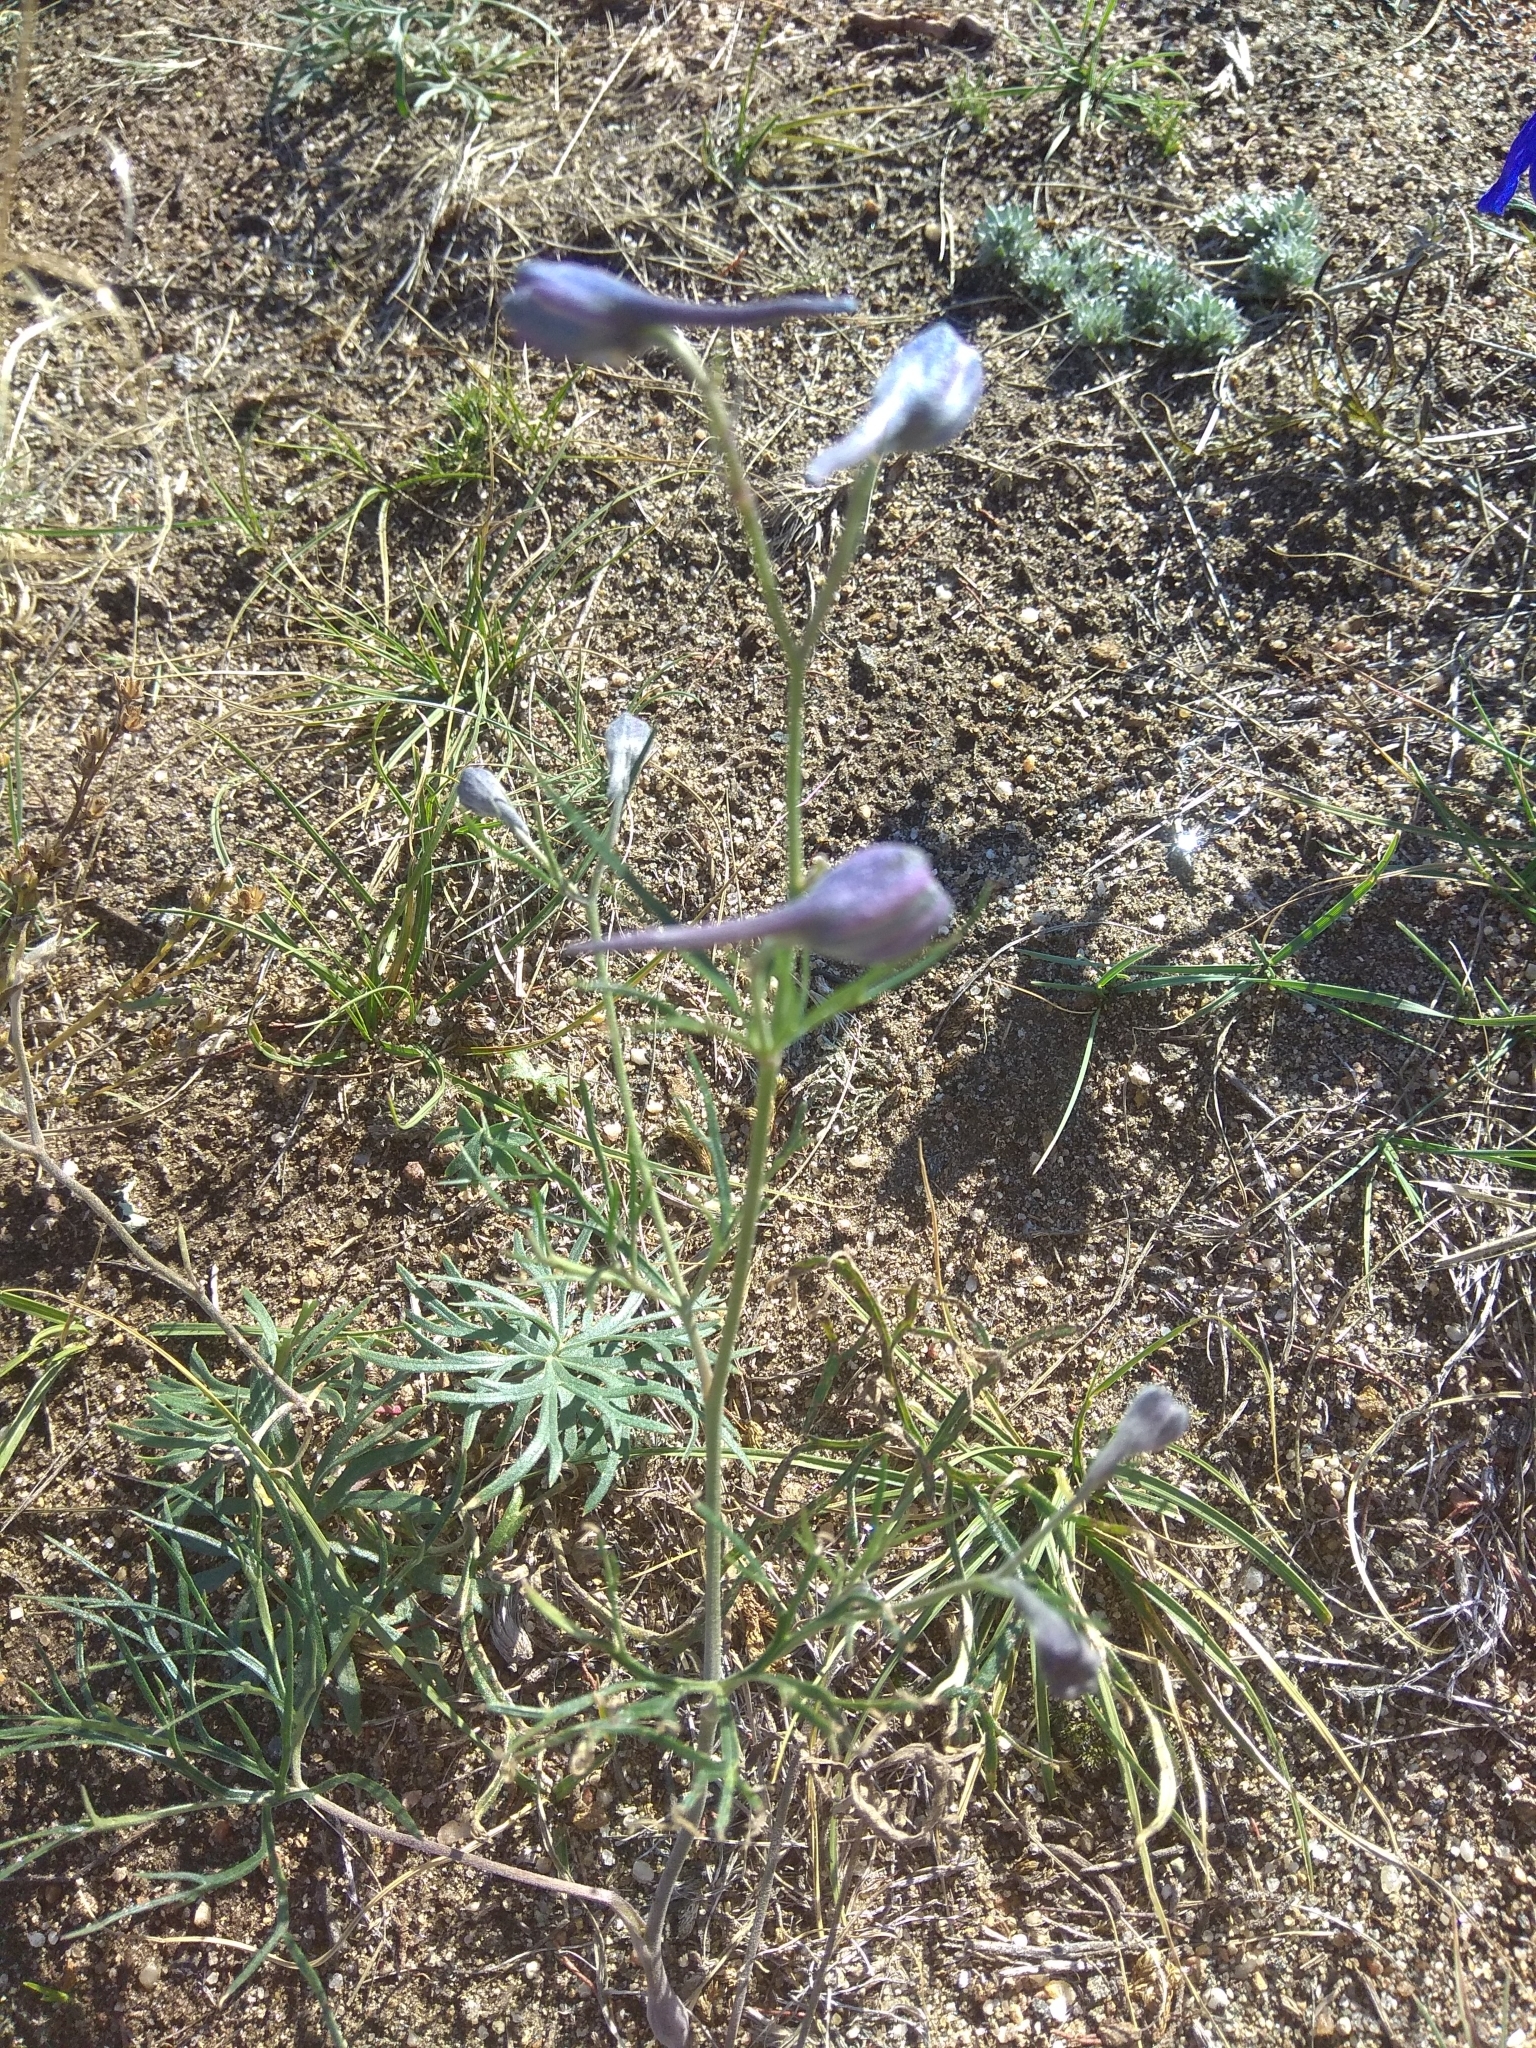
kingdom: Plantae
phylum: Tracheophyta
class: Magnoliopsida
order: Ranunculales
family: Ranunculaceae
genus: Delphinium
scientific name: Delphinium grandiflorum
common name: Siberian larkspur
